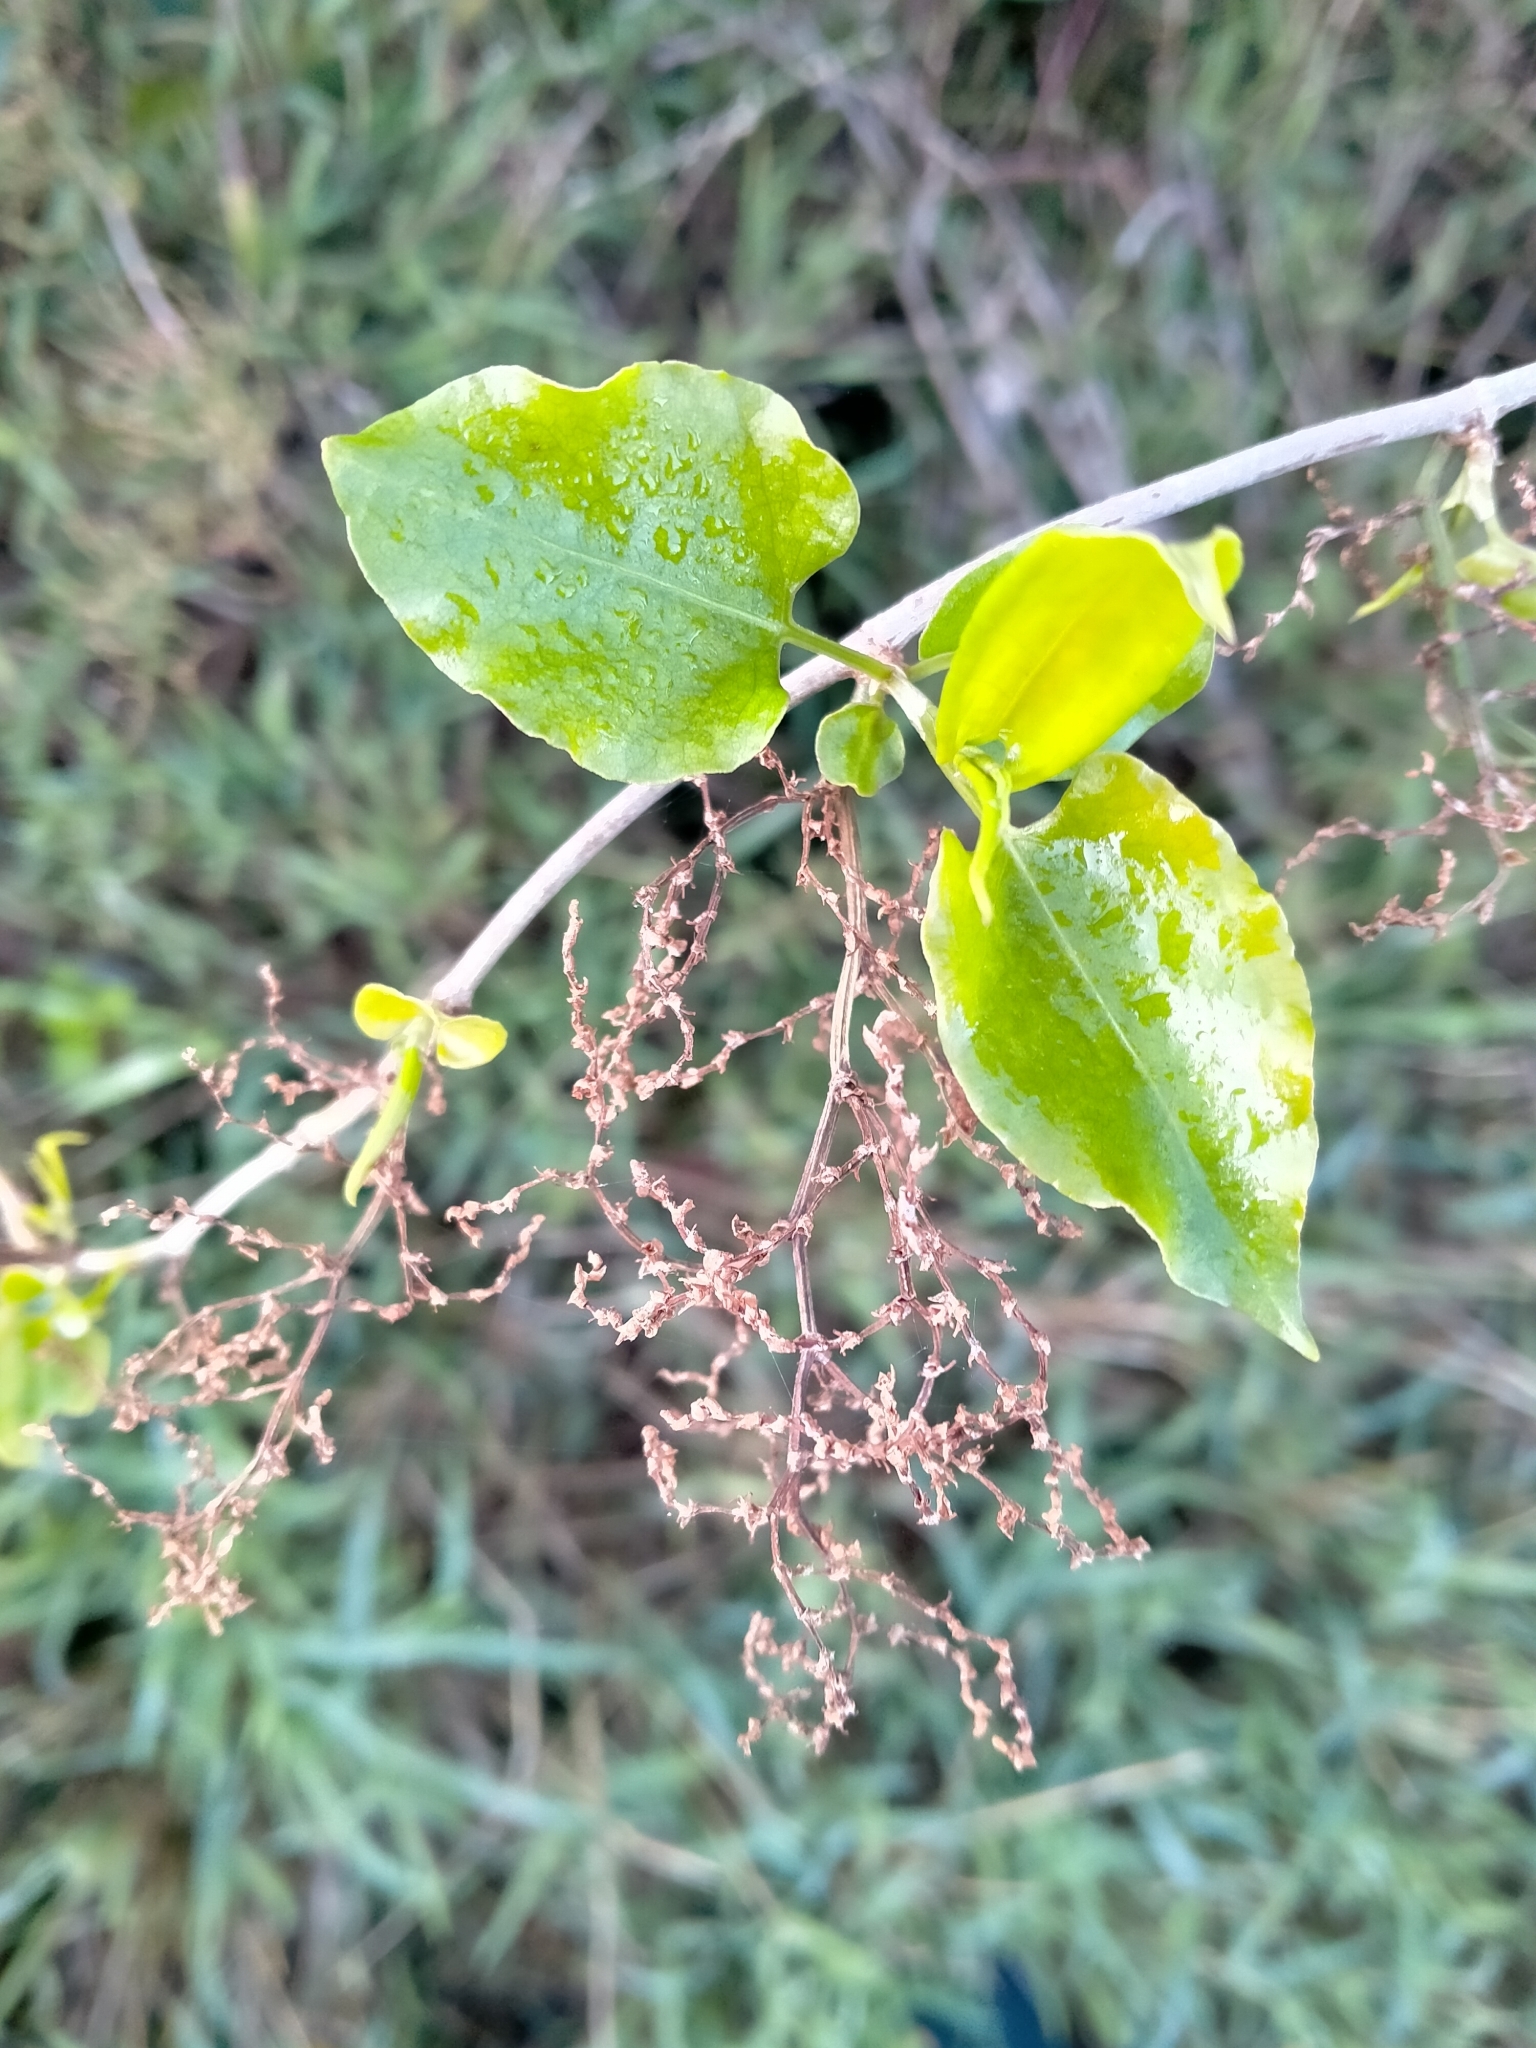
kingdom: Plantae
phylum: Tracheophyta
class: Magnoliopsida
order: Caryophyllales
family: Polygonaceae
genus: Muehlenbeckia
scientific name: Muehlenbeckia australis
